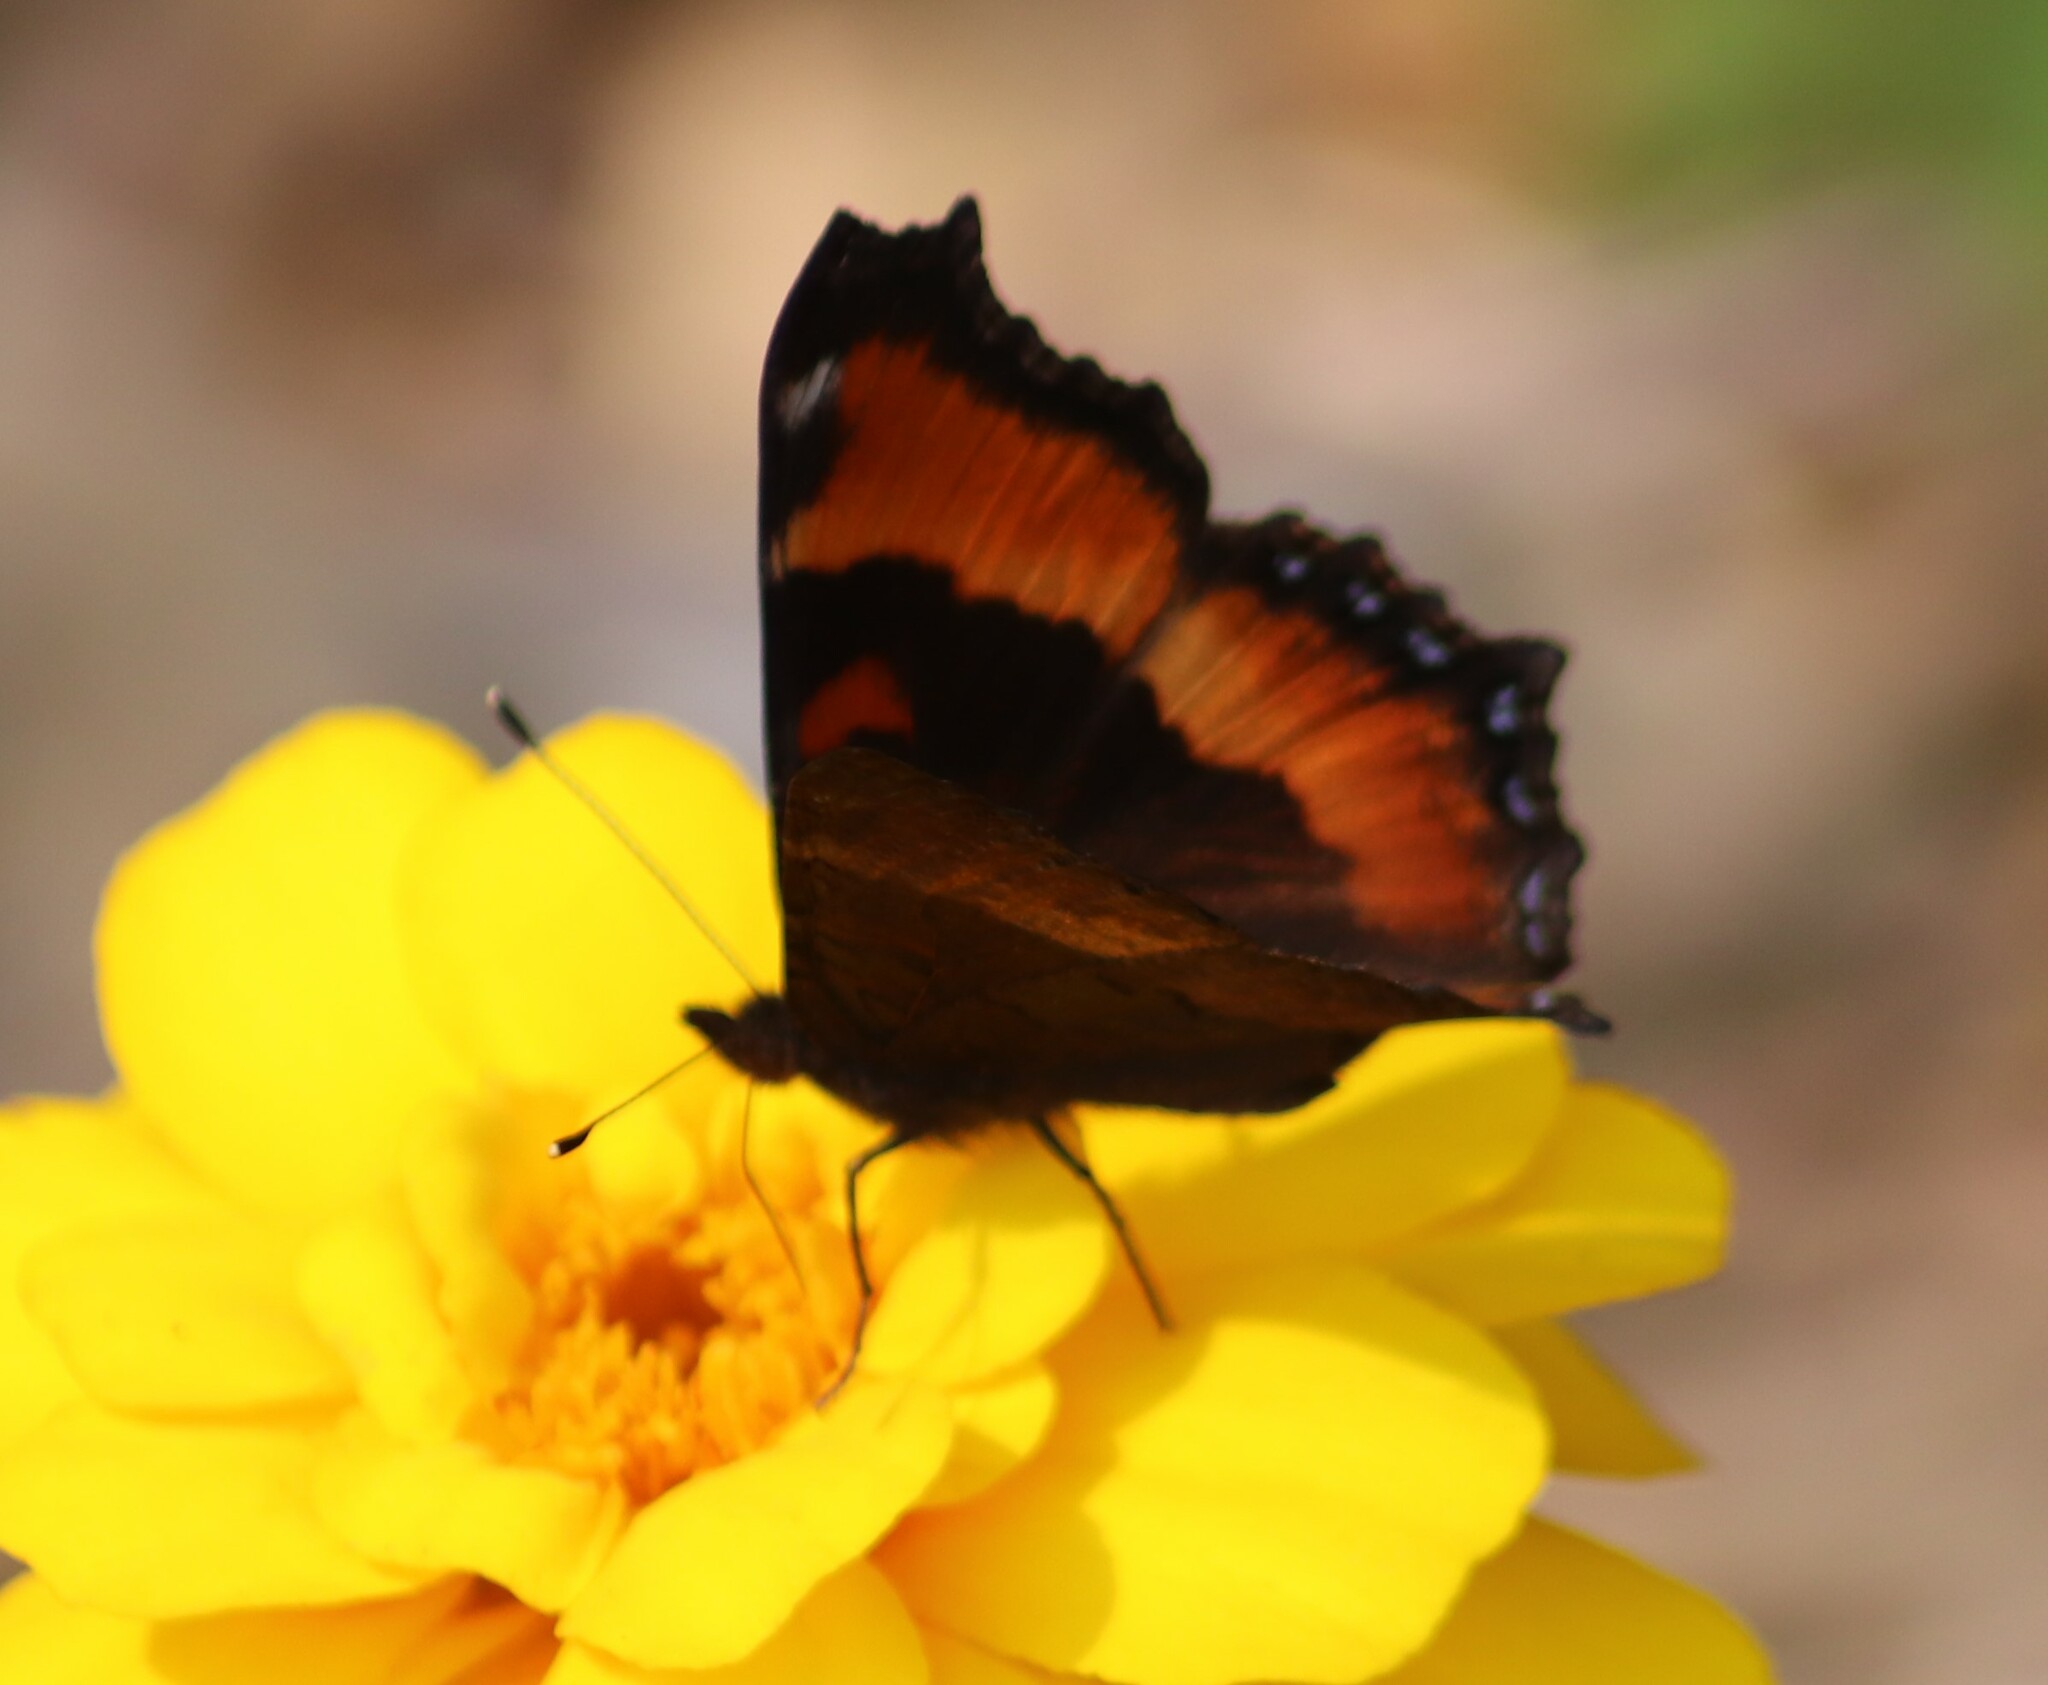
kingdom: Animalia
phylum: Arthropoda
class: Insecta
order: Lepidoptera
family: Nymphalidae
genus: Aglais
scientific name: Aglais milberti
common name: Milbert's tortoiseshell
